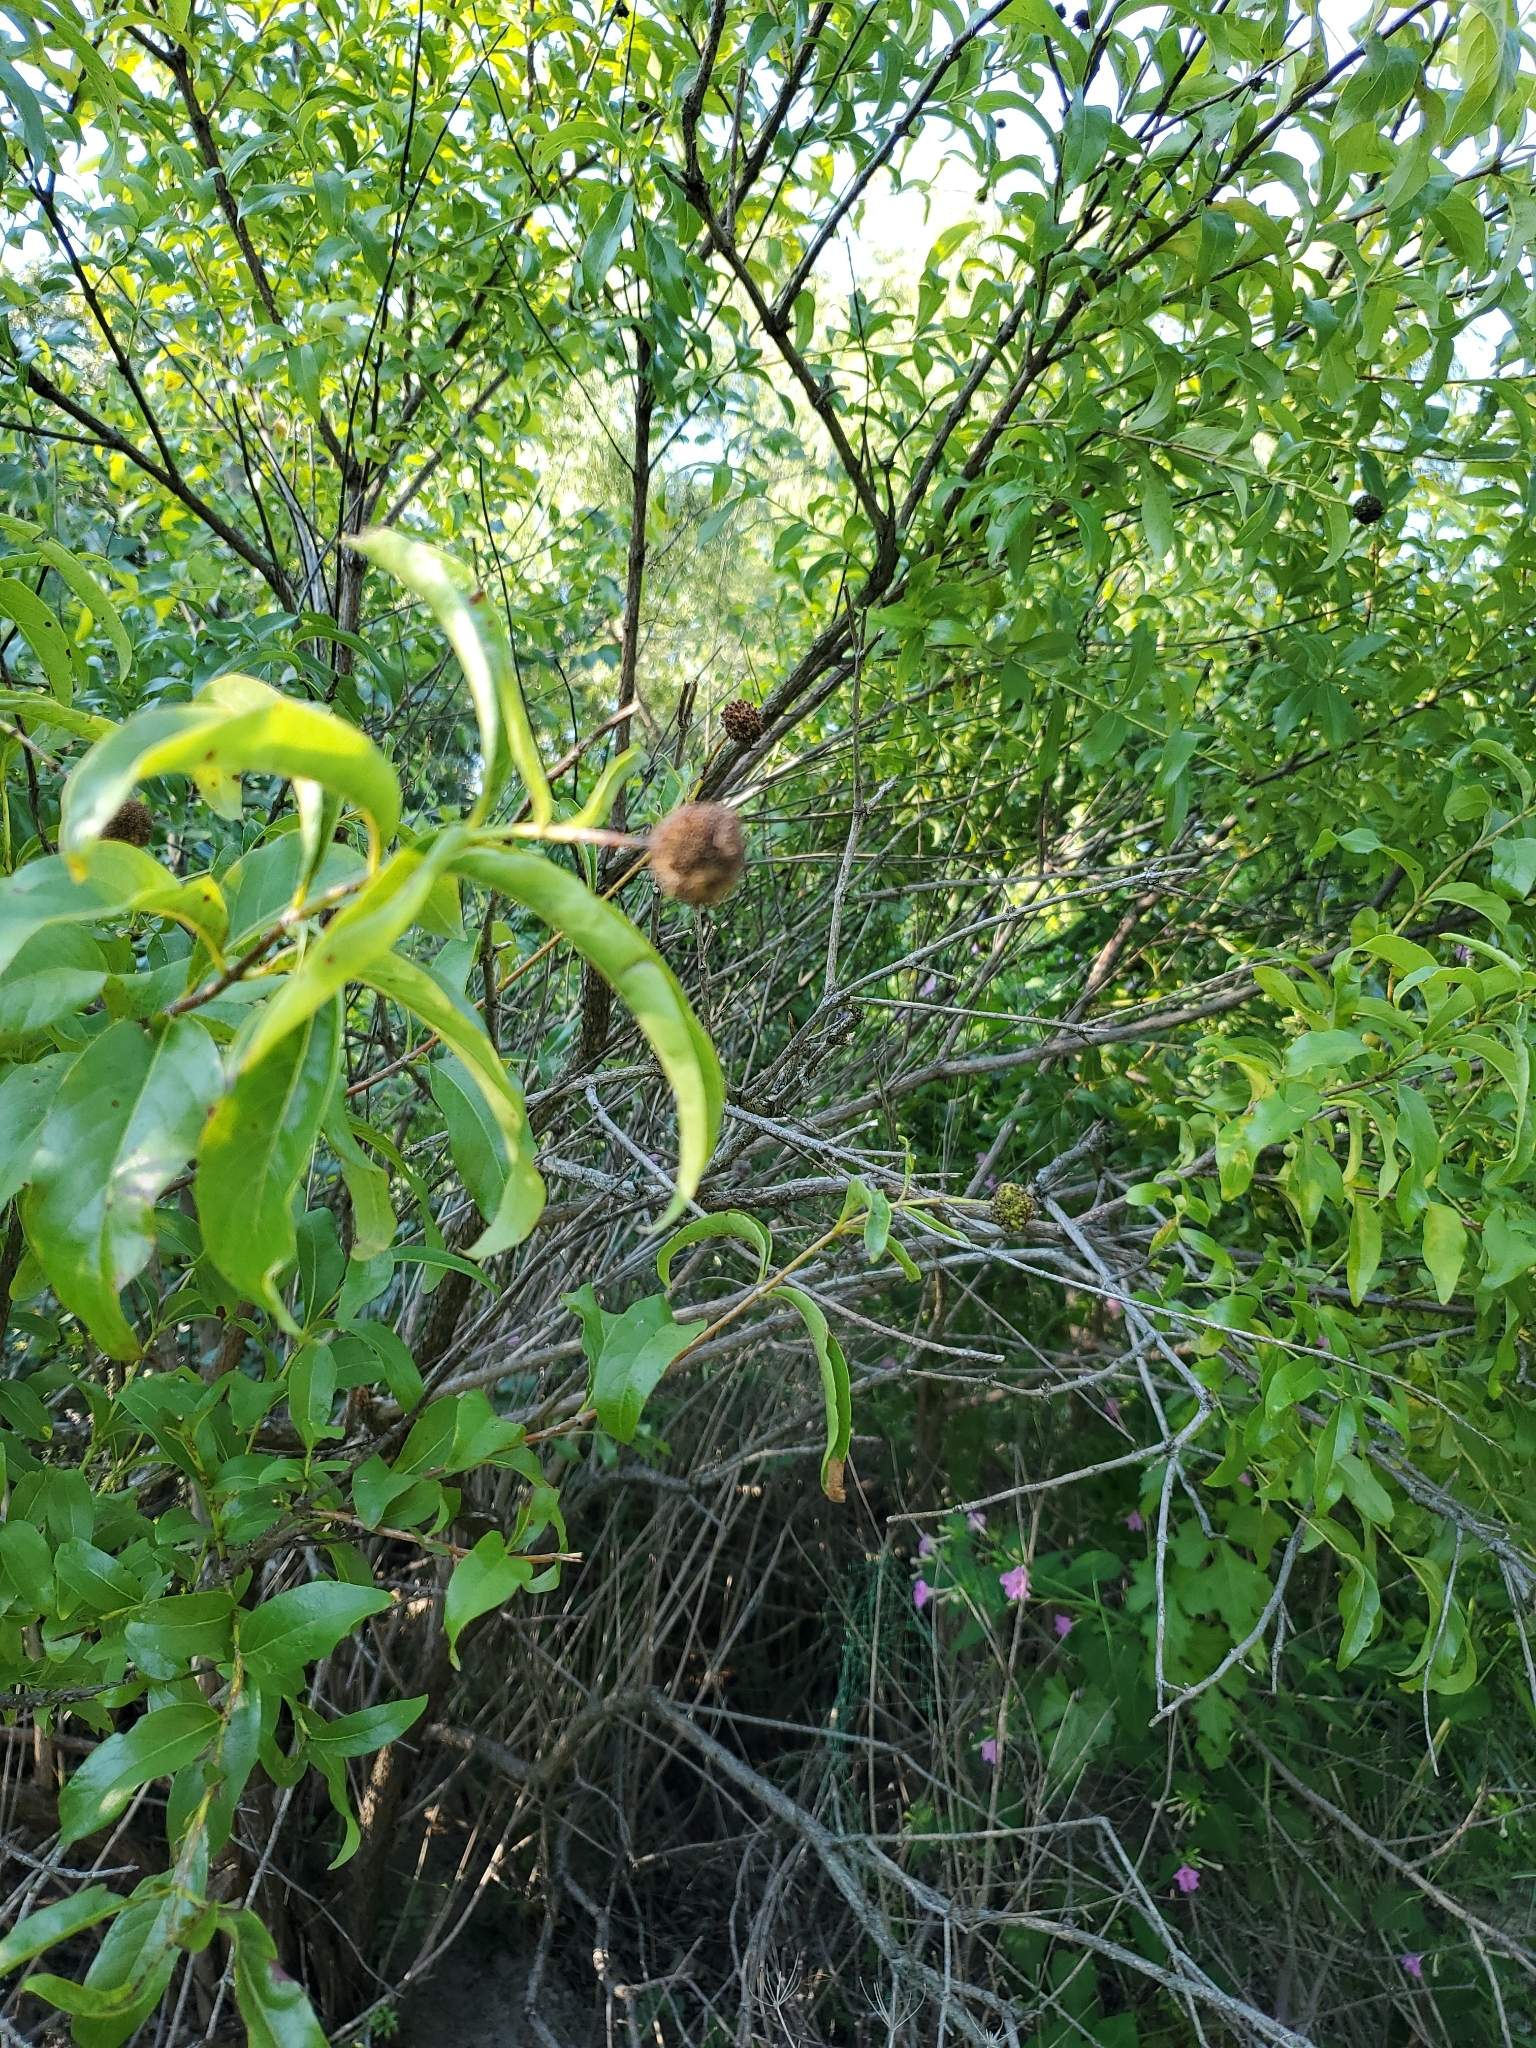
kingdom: Plantae
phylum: Tracheophyta
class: Magnoliopsida
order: Gentianales
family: Rubiaceae
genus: Cephalanthus
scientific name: Cephalanthus occidentalis
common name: Button-willow
